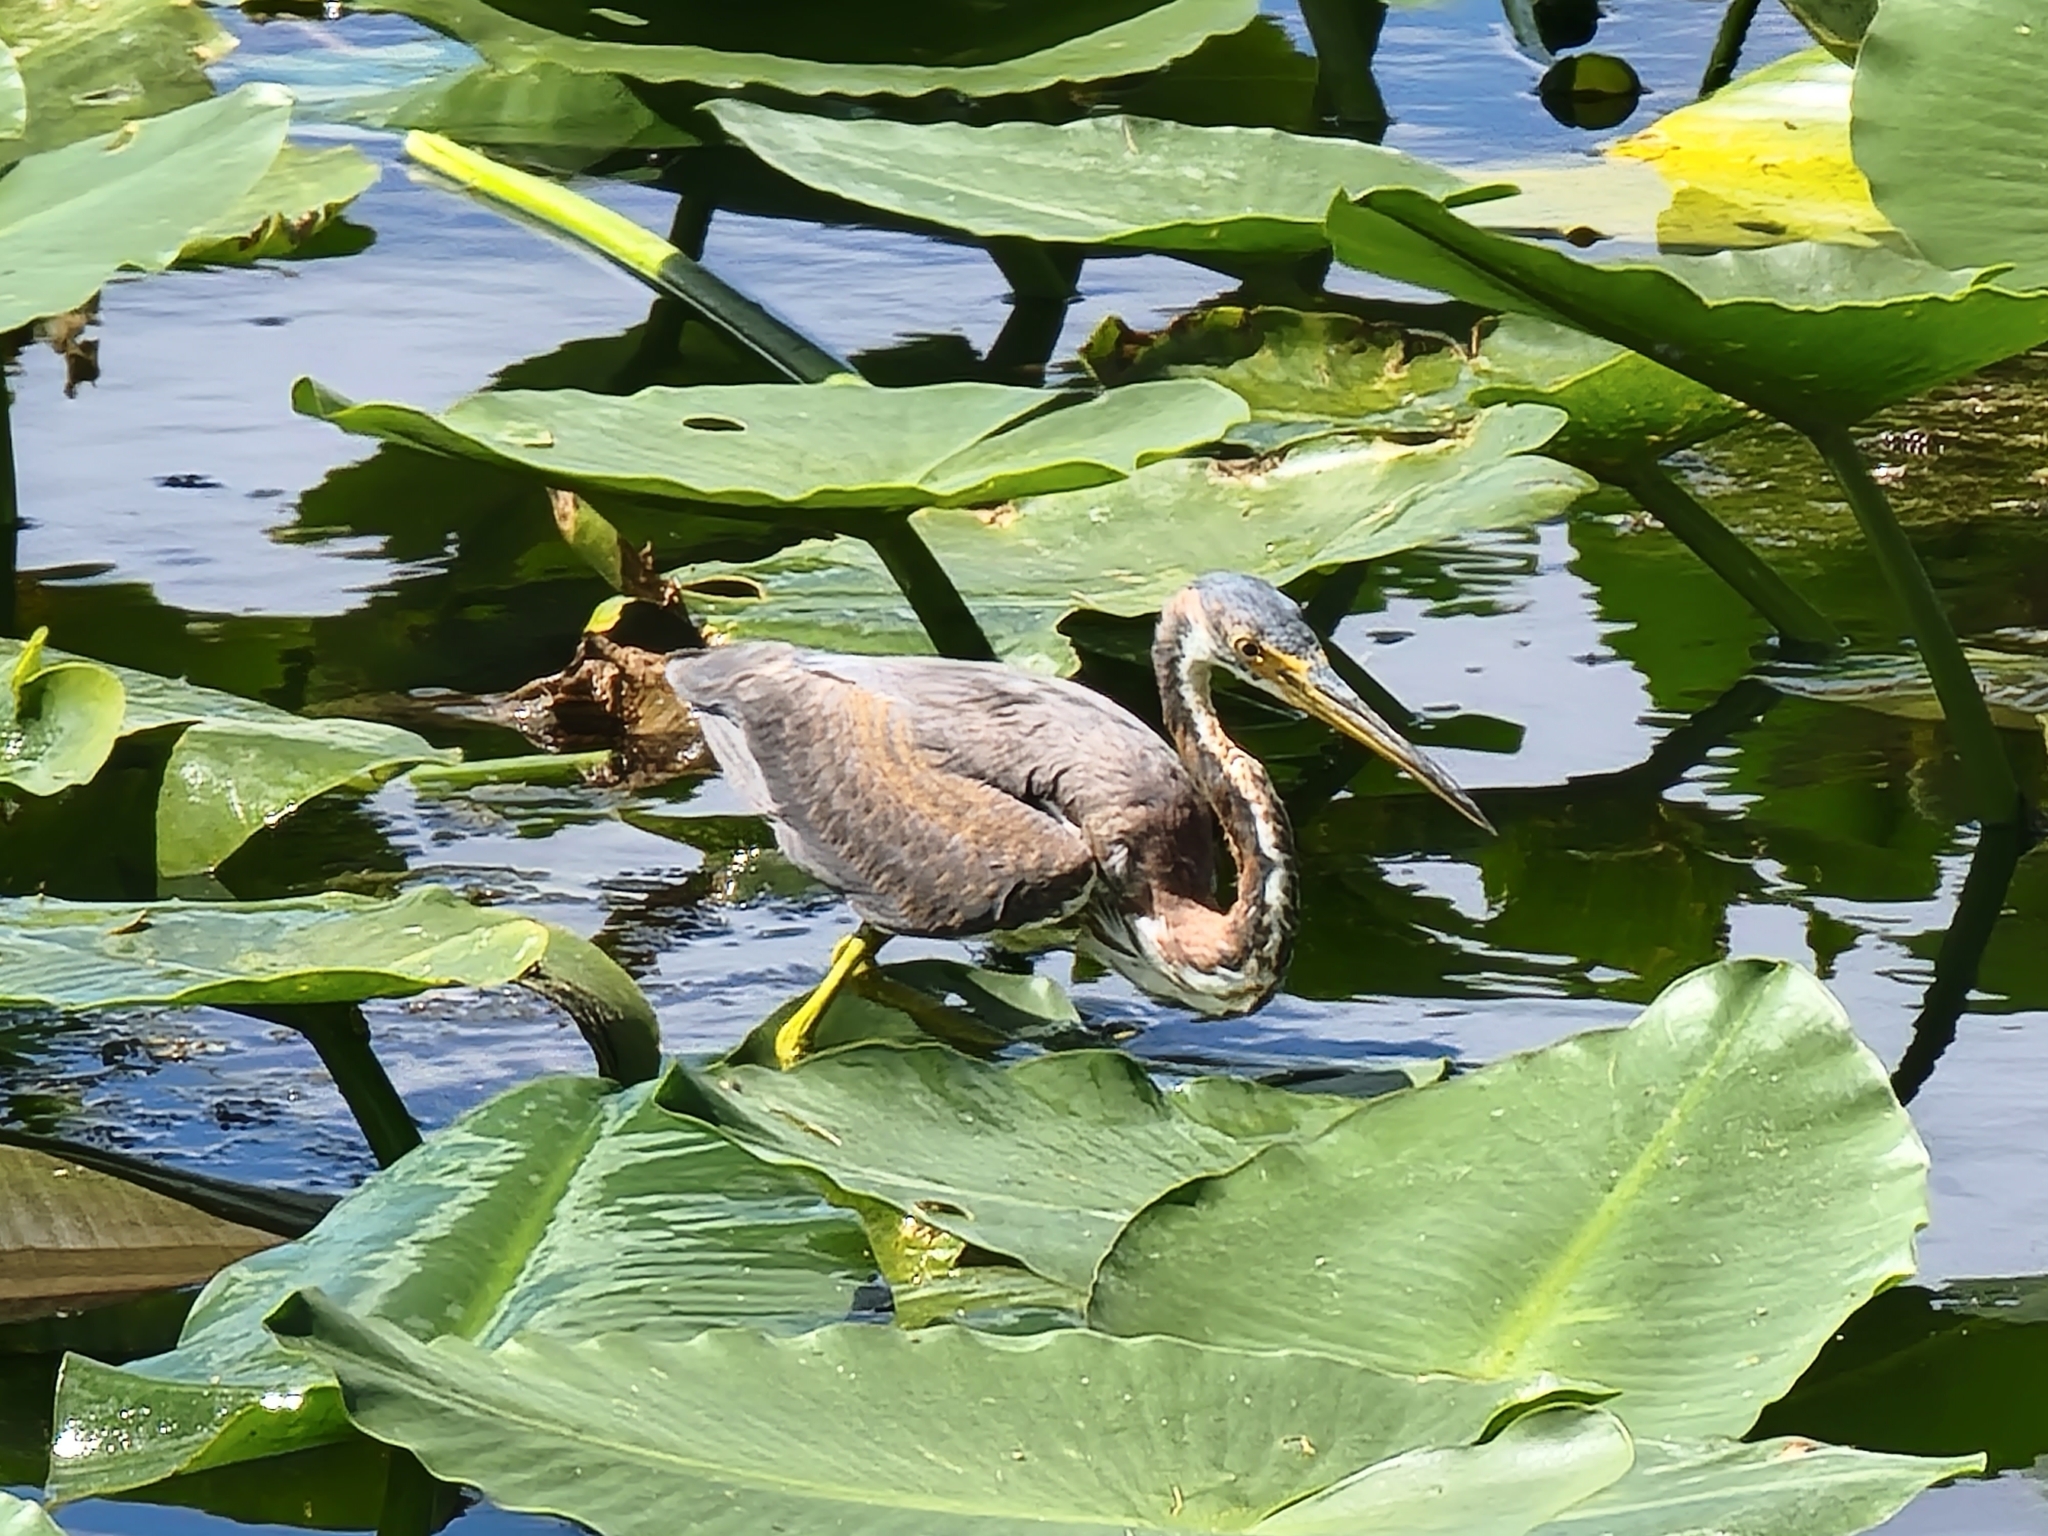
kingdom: Animalia
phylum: Chordata
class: Aves
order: Pelecaniformes
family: Ardeidae
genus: Egretta
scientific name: Egretta tricolor
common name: Tricolored heron
